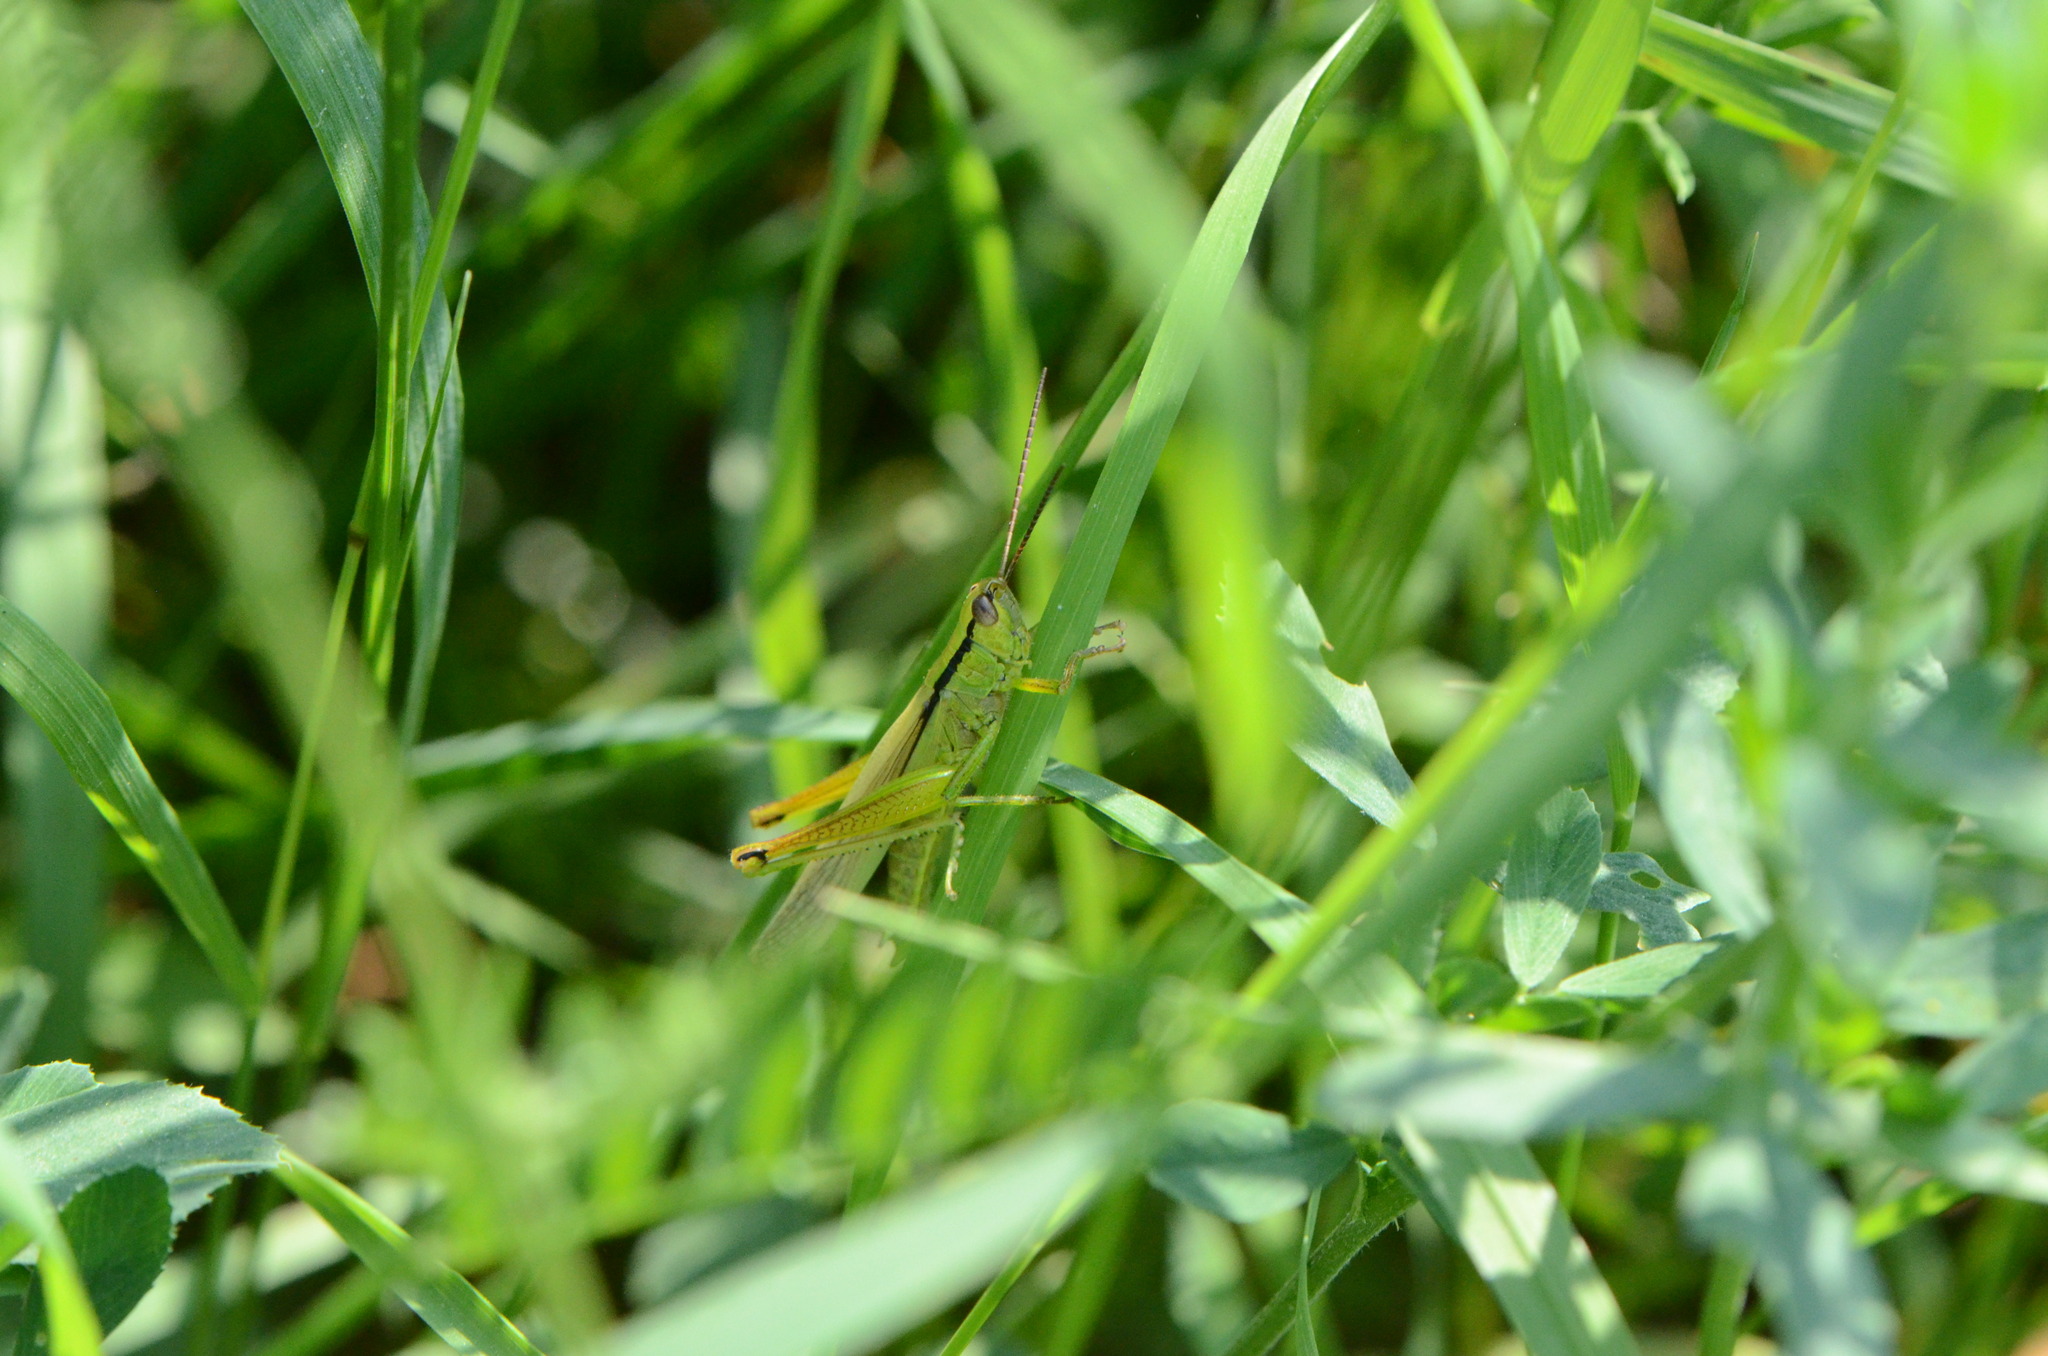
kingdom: Animalia
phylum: Arthropoda
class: Insecta
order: Orthoptera
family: Acrididae
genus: Mecostethus
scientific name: Mecostethus parapleurus
